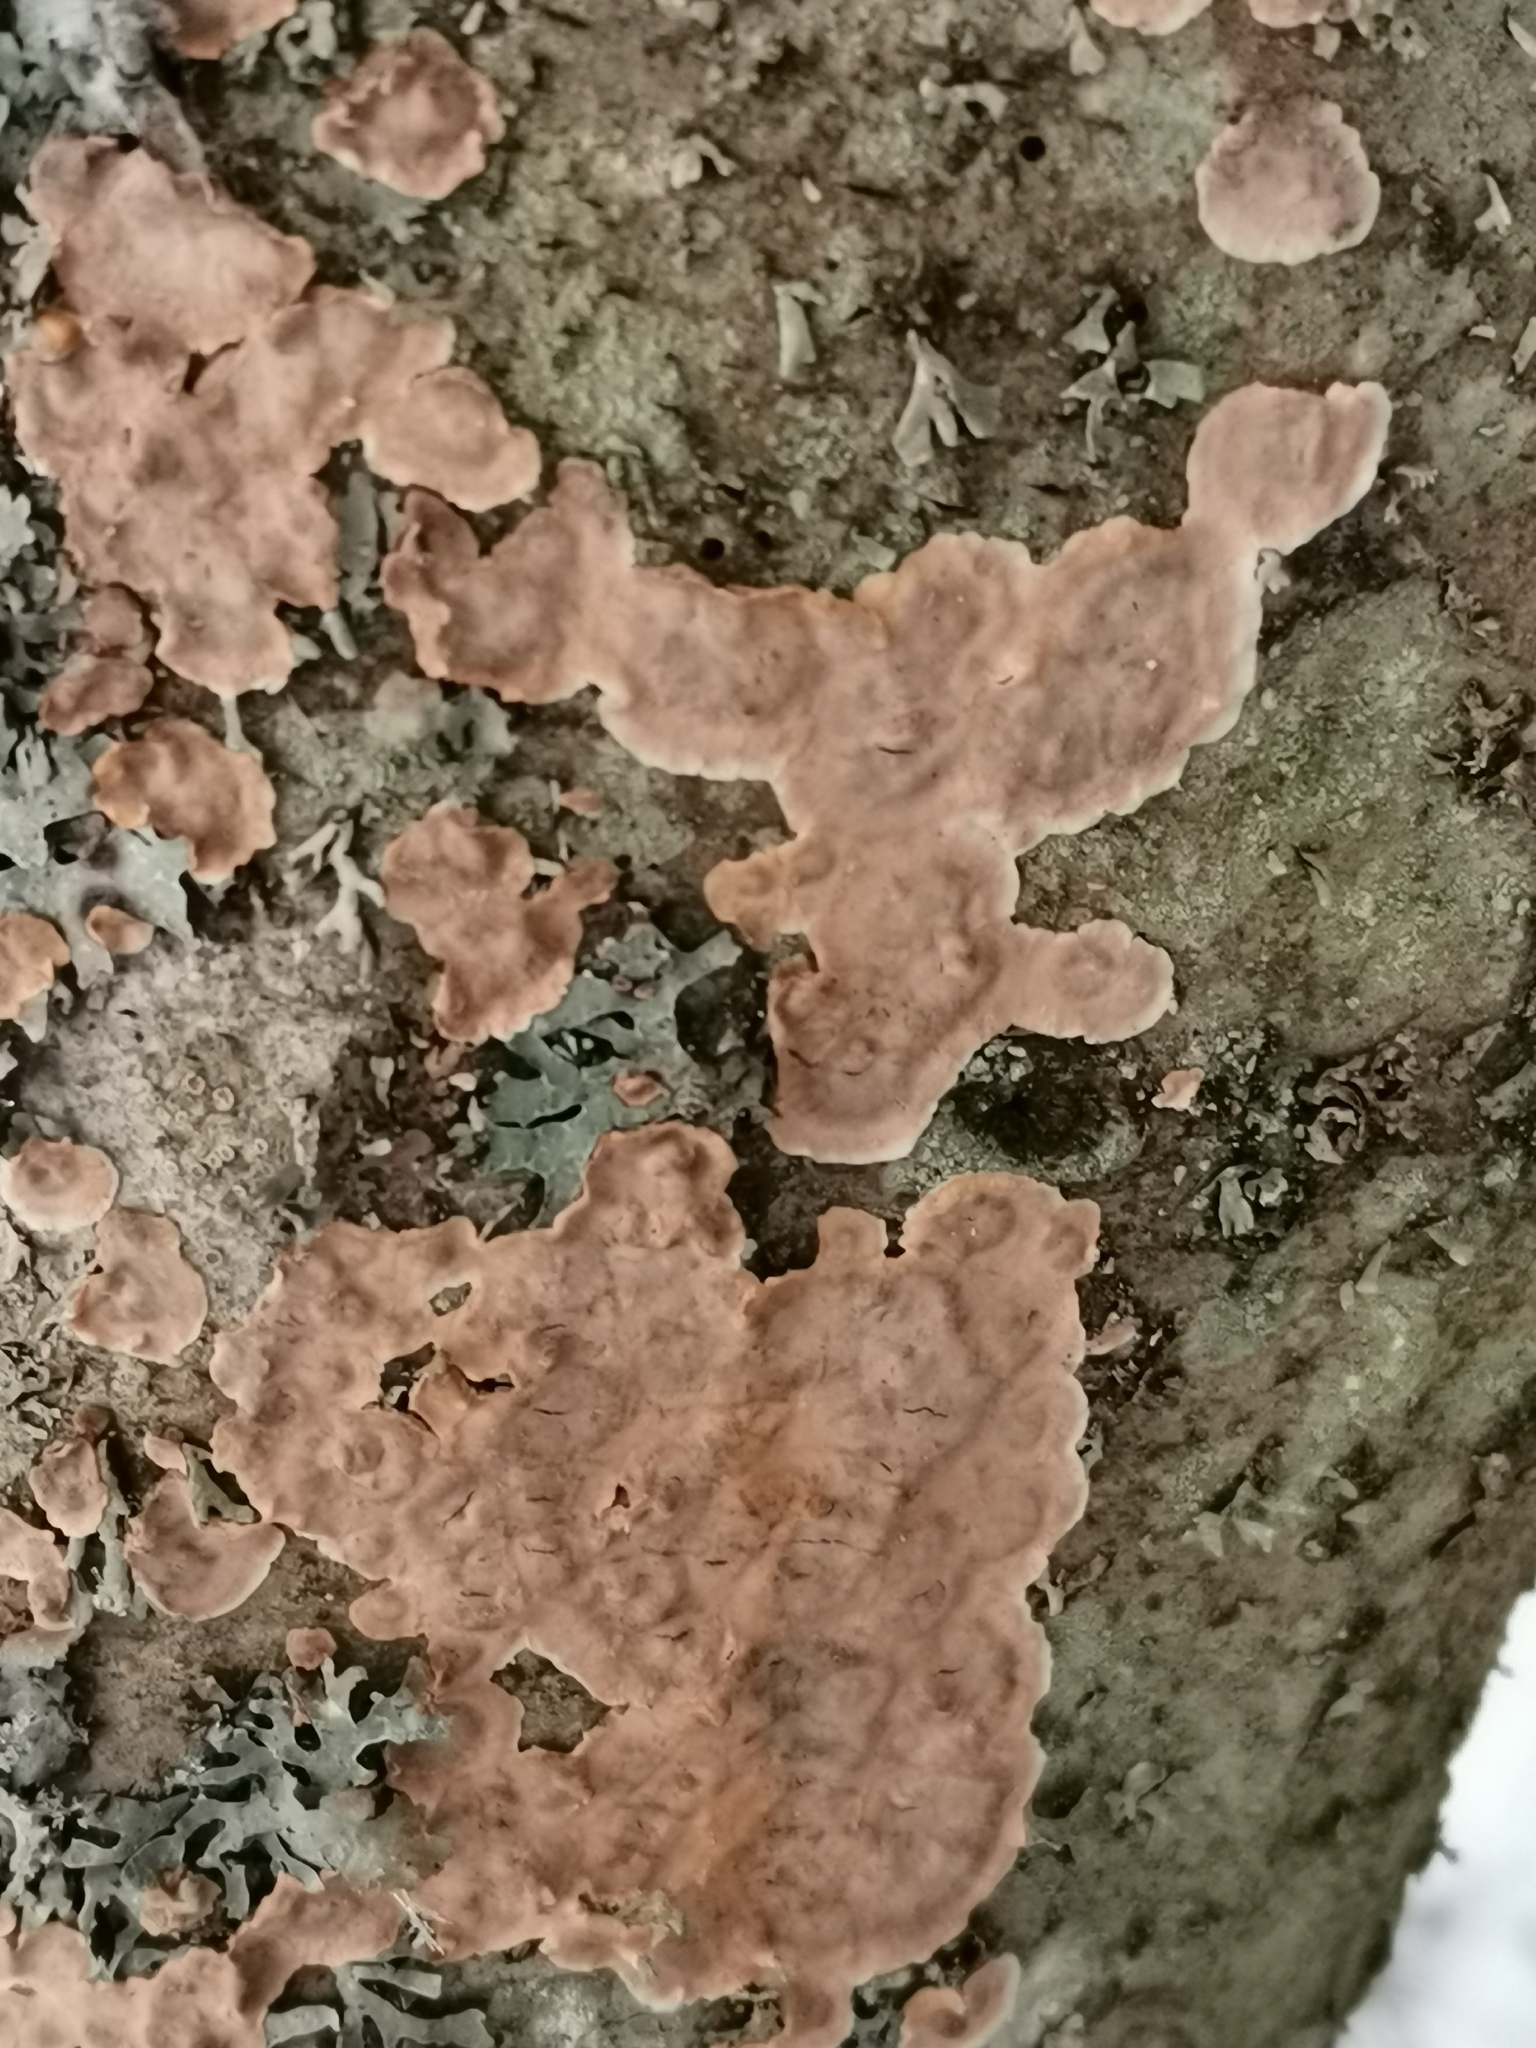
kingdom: Fungi
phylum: Basidiomycota
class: Agaricomycetes
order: Russulales
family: Stereaceae
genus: Stereum
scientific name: Stereum rugosum
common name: Bleeding broadleaf crust
